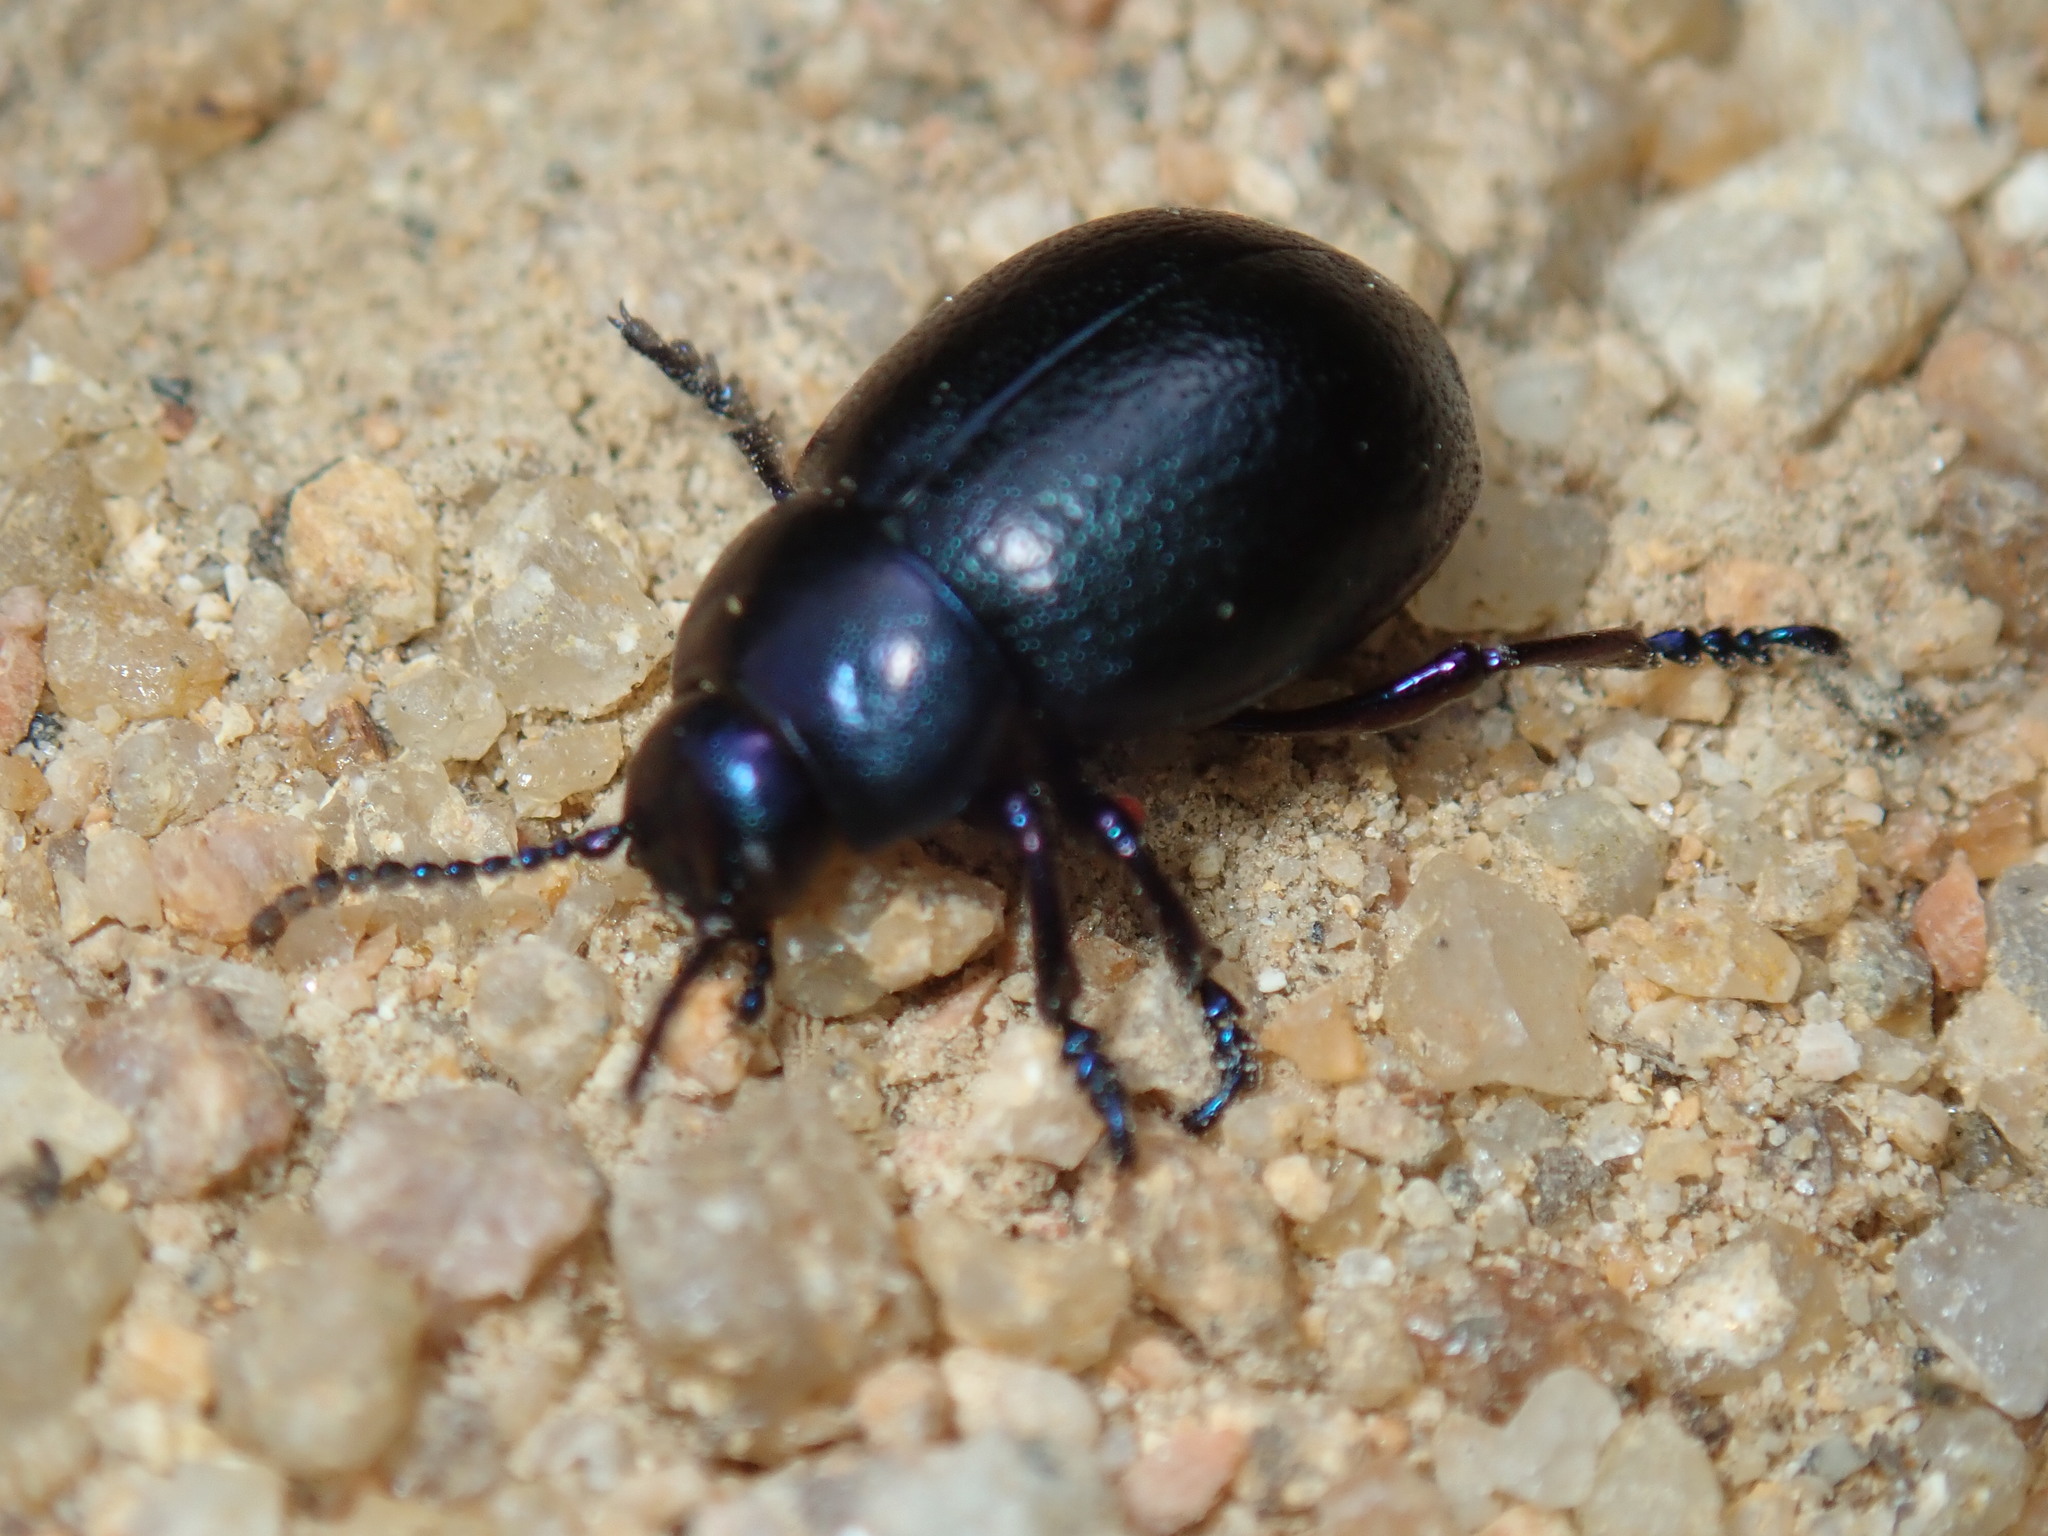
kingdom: Animalia
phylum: Arthropoda
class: Insecta
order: Coleoptera
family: Chrysomelidae
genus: Timarcha
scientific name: Timarcha goettingensis
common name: Small bloody-nosed beetle
